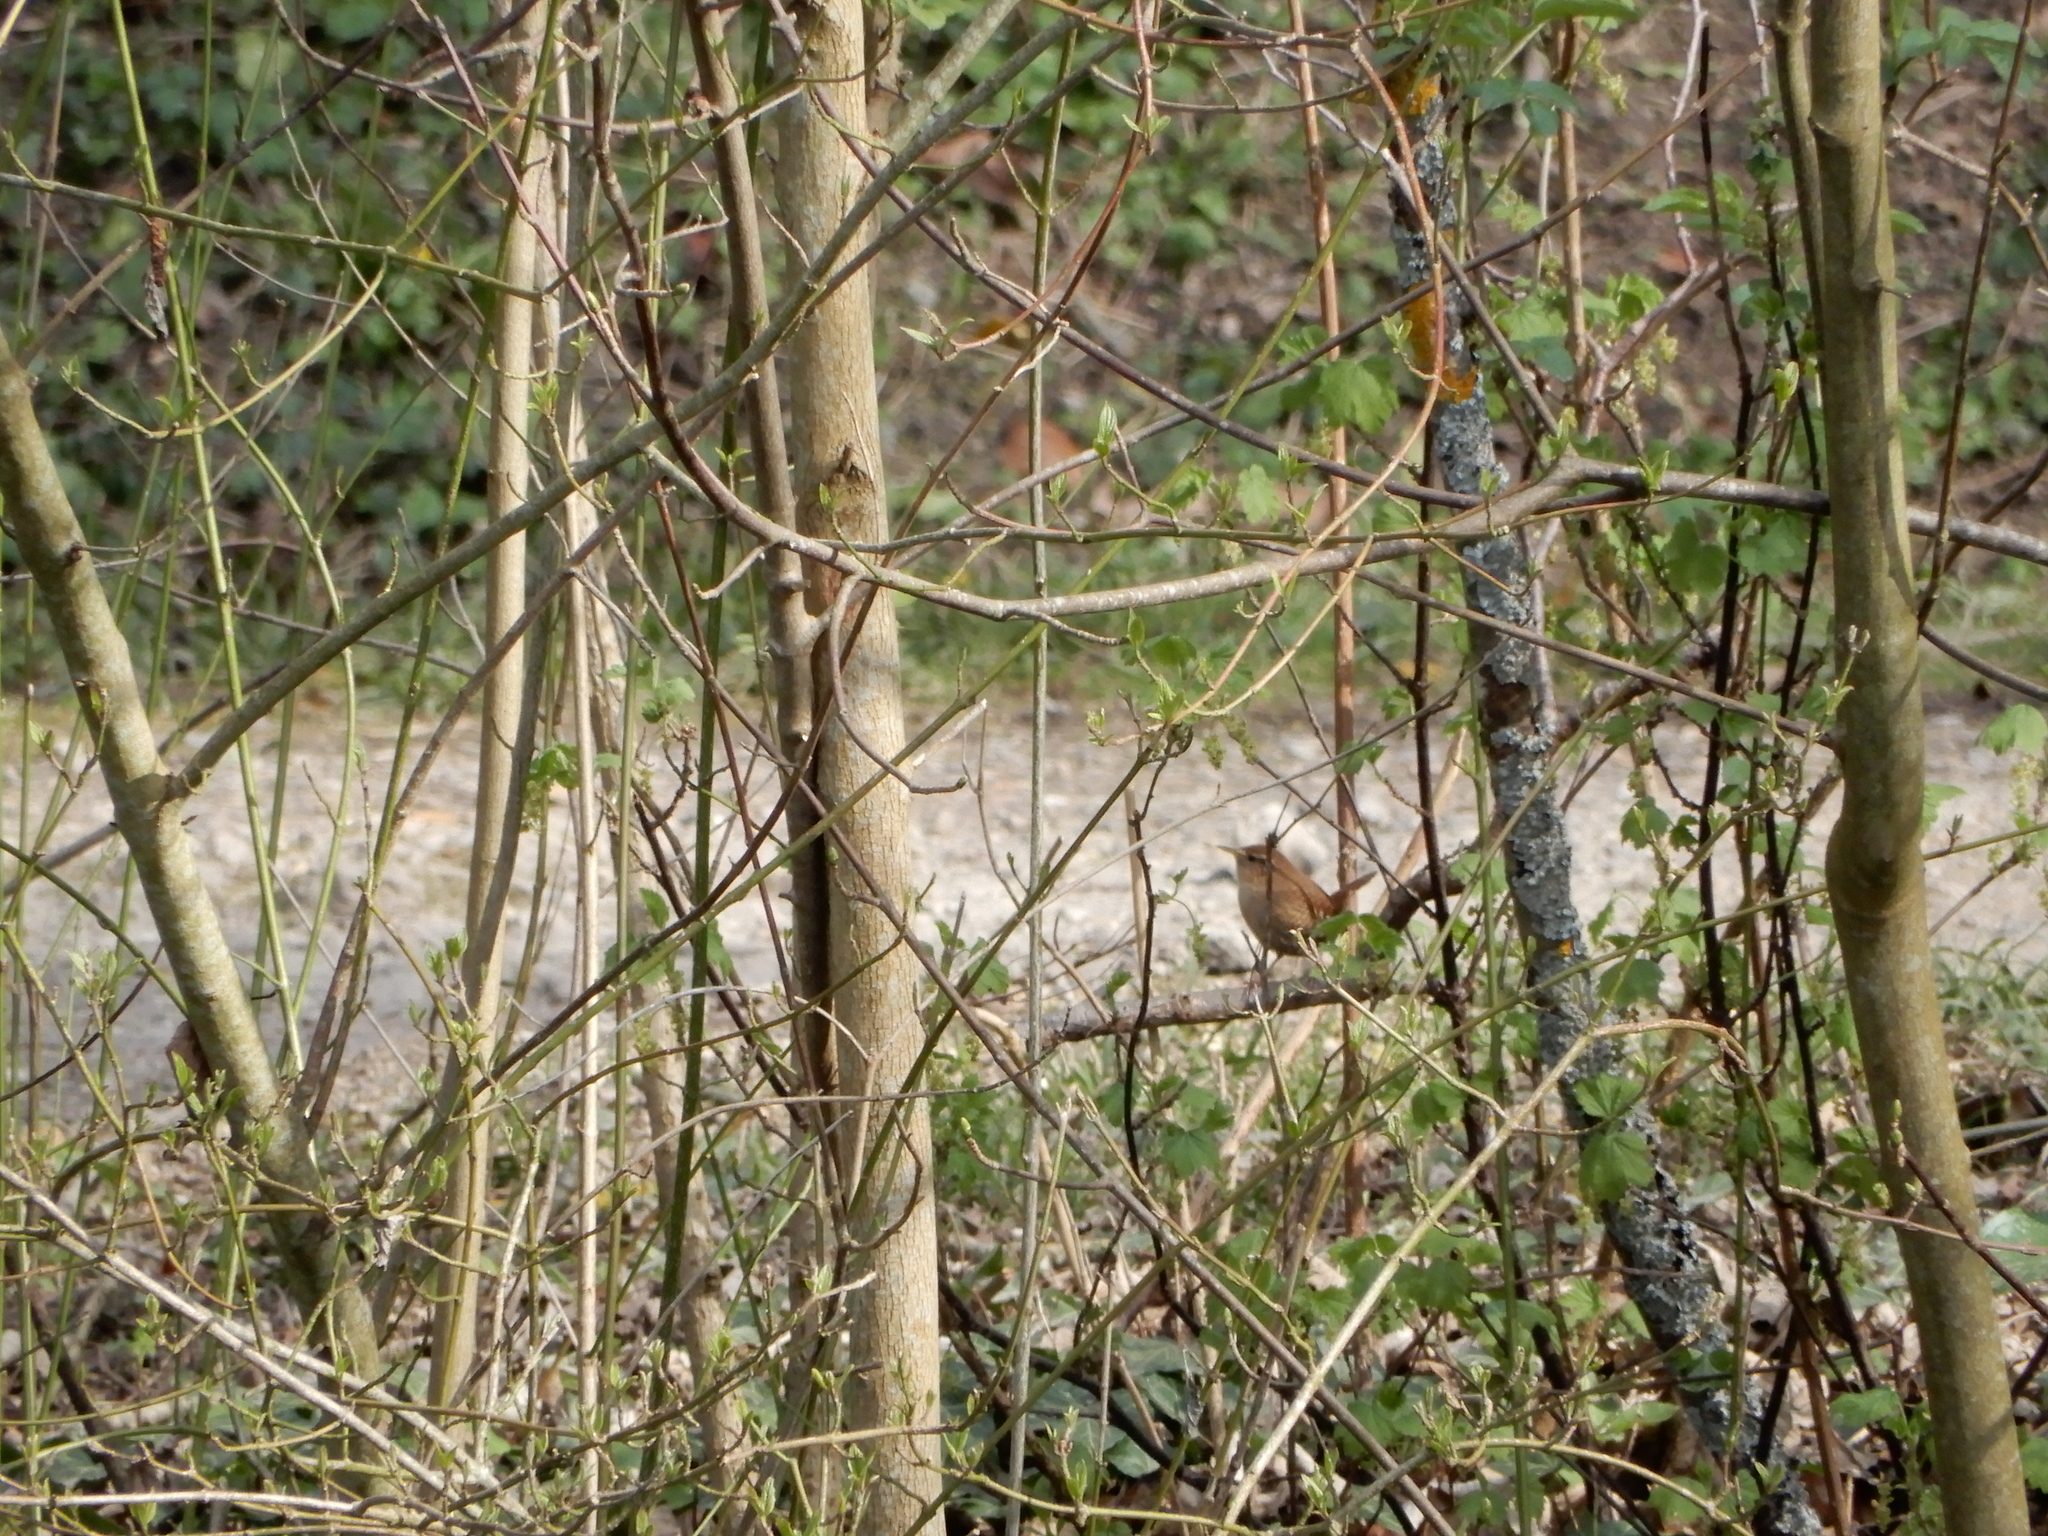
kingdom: Animalia
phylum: Chordata
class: Aves
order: Passeriformes
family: Troglodytidae
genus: Troglodytes
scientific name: Troglodytes troglodytes
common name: Eurasian wren
